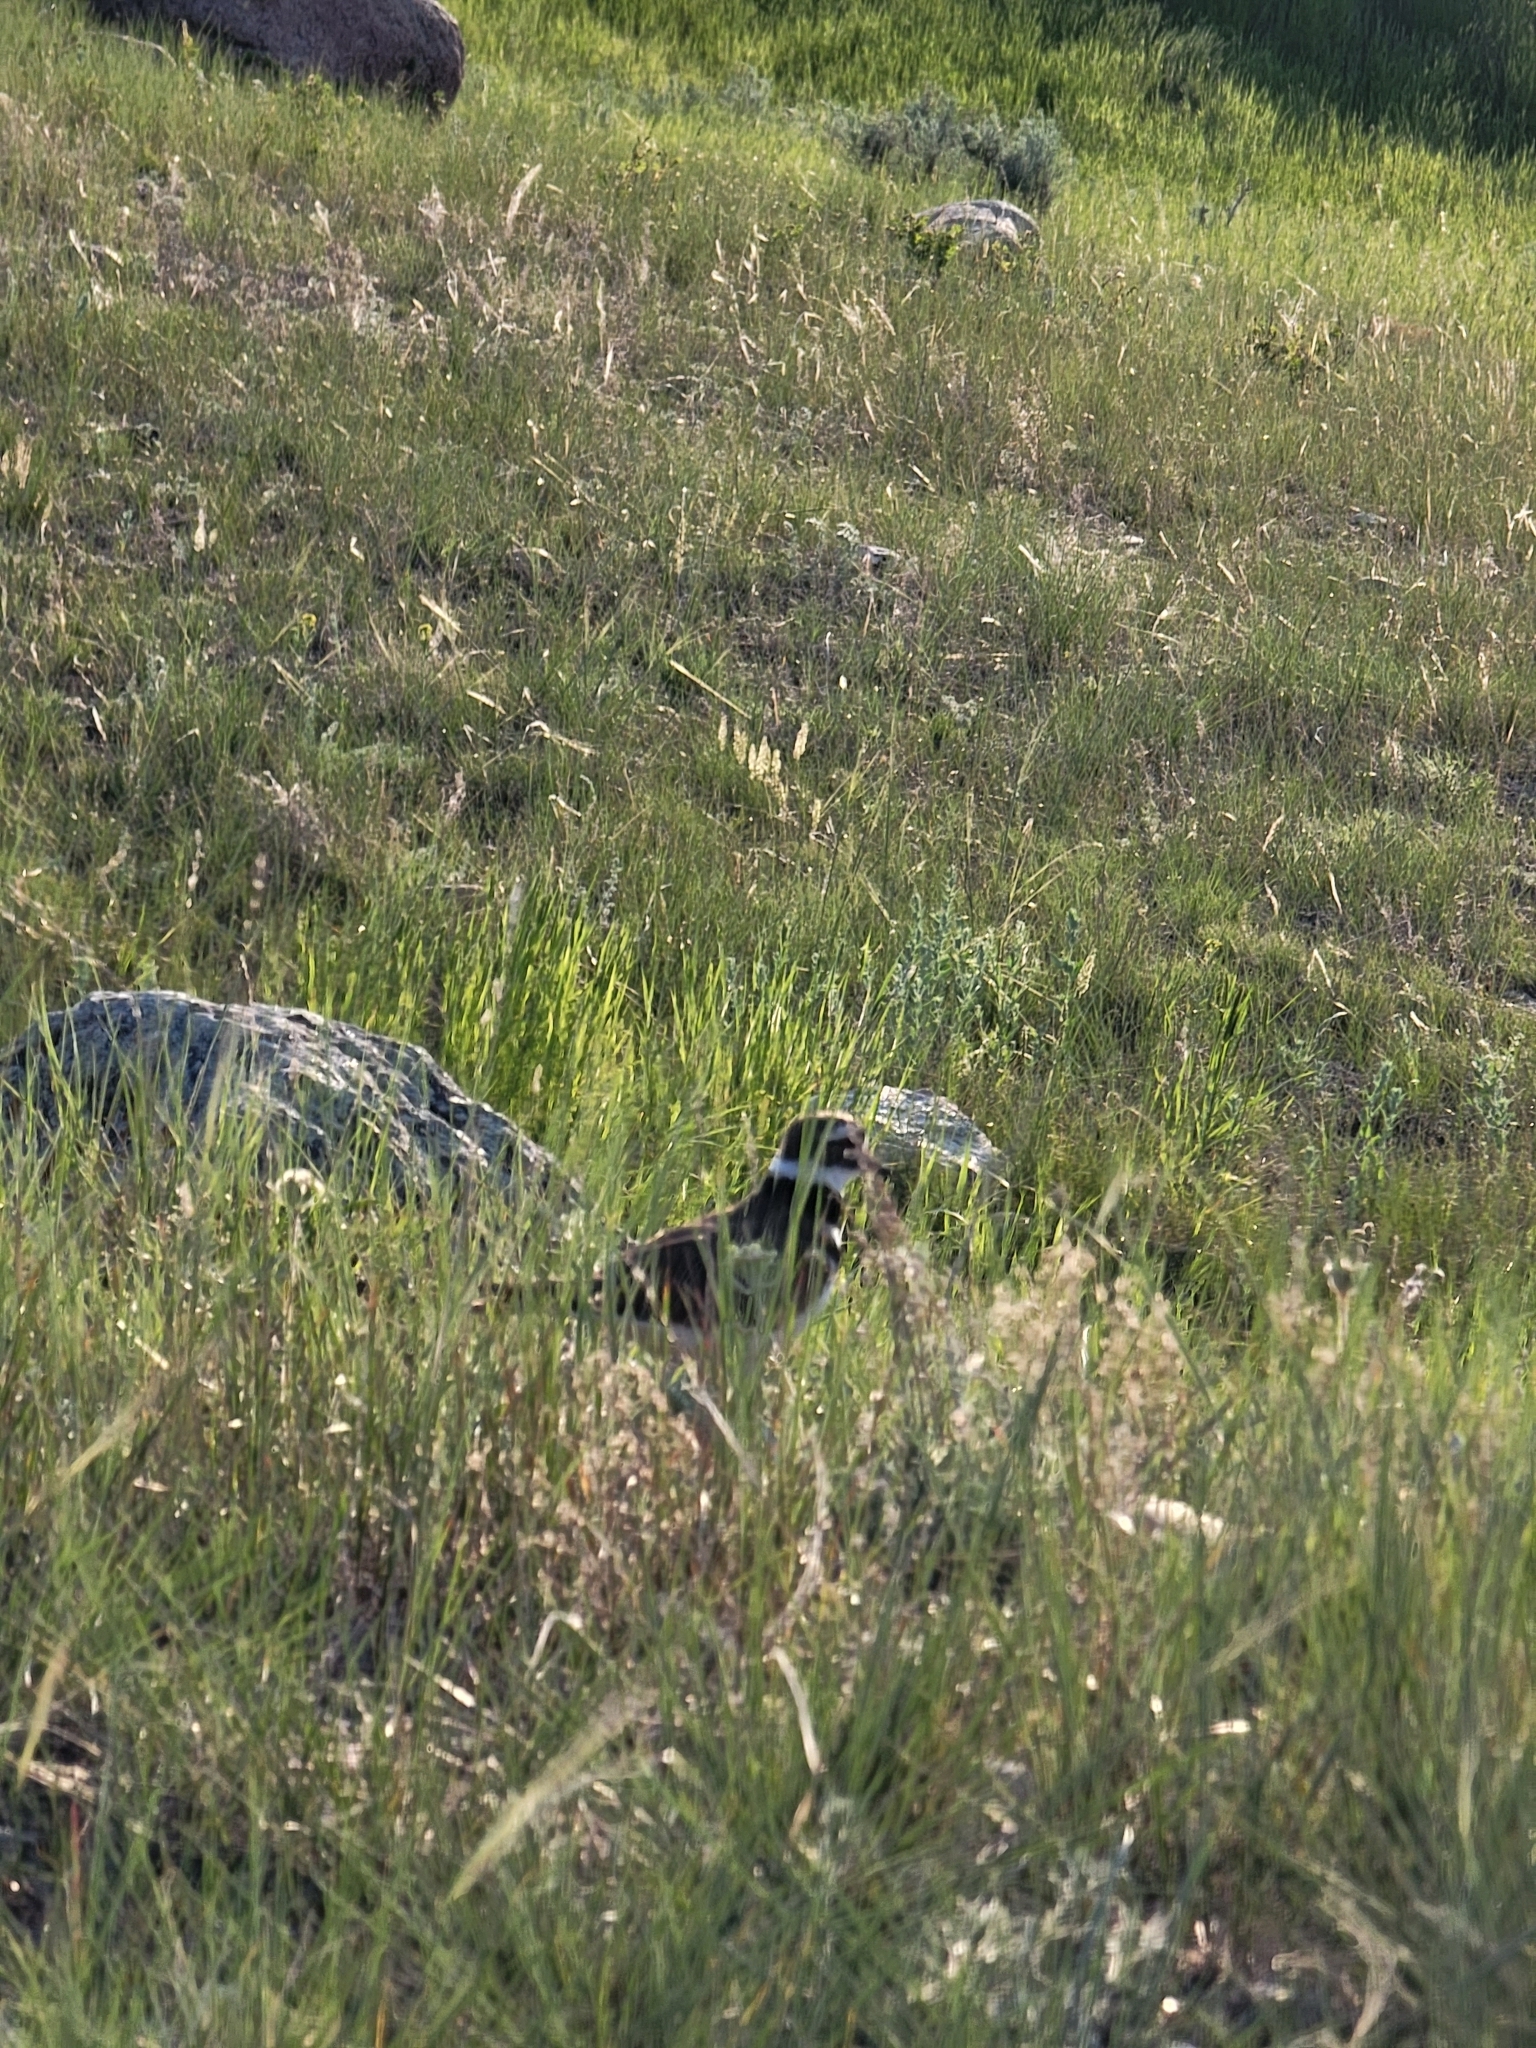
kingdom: Animalia
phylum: Chordata
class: Aves
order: Charadriiformes
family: Charadriidae
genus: Charadrius
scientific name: Charadrius vociferus
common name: Killdeer
